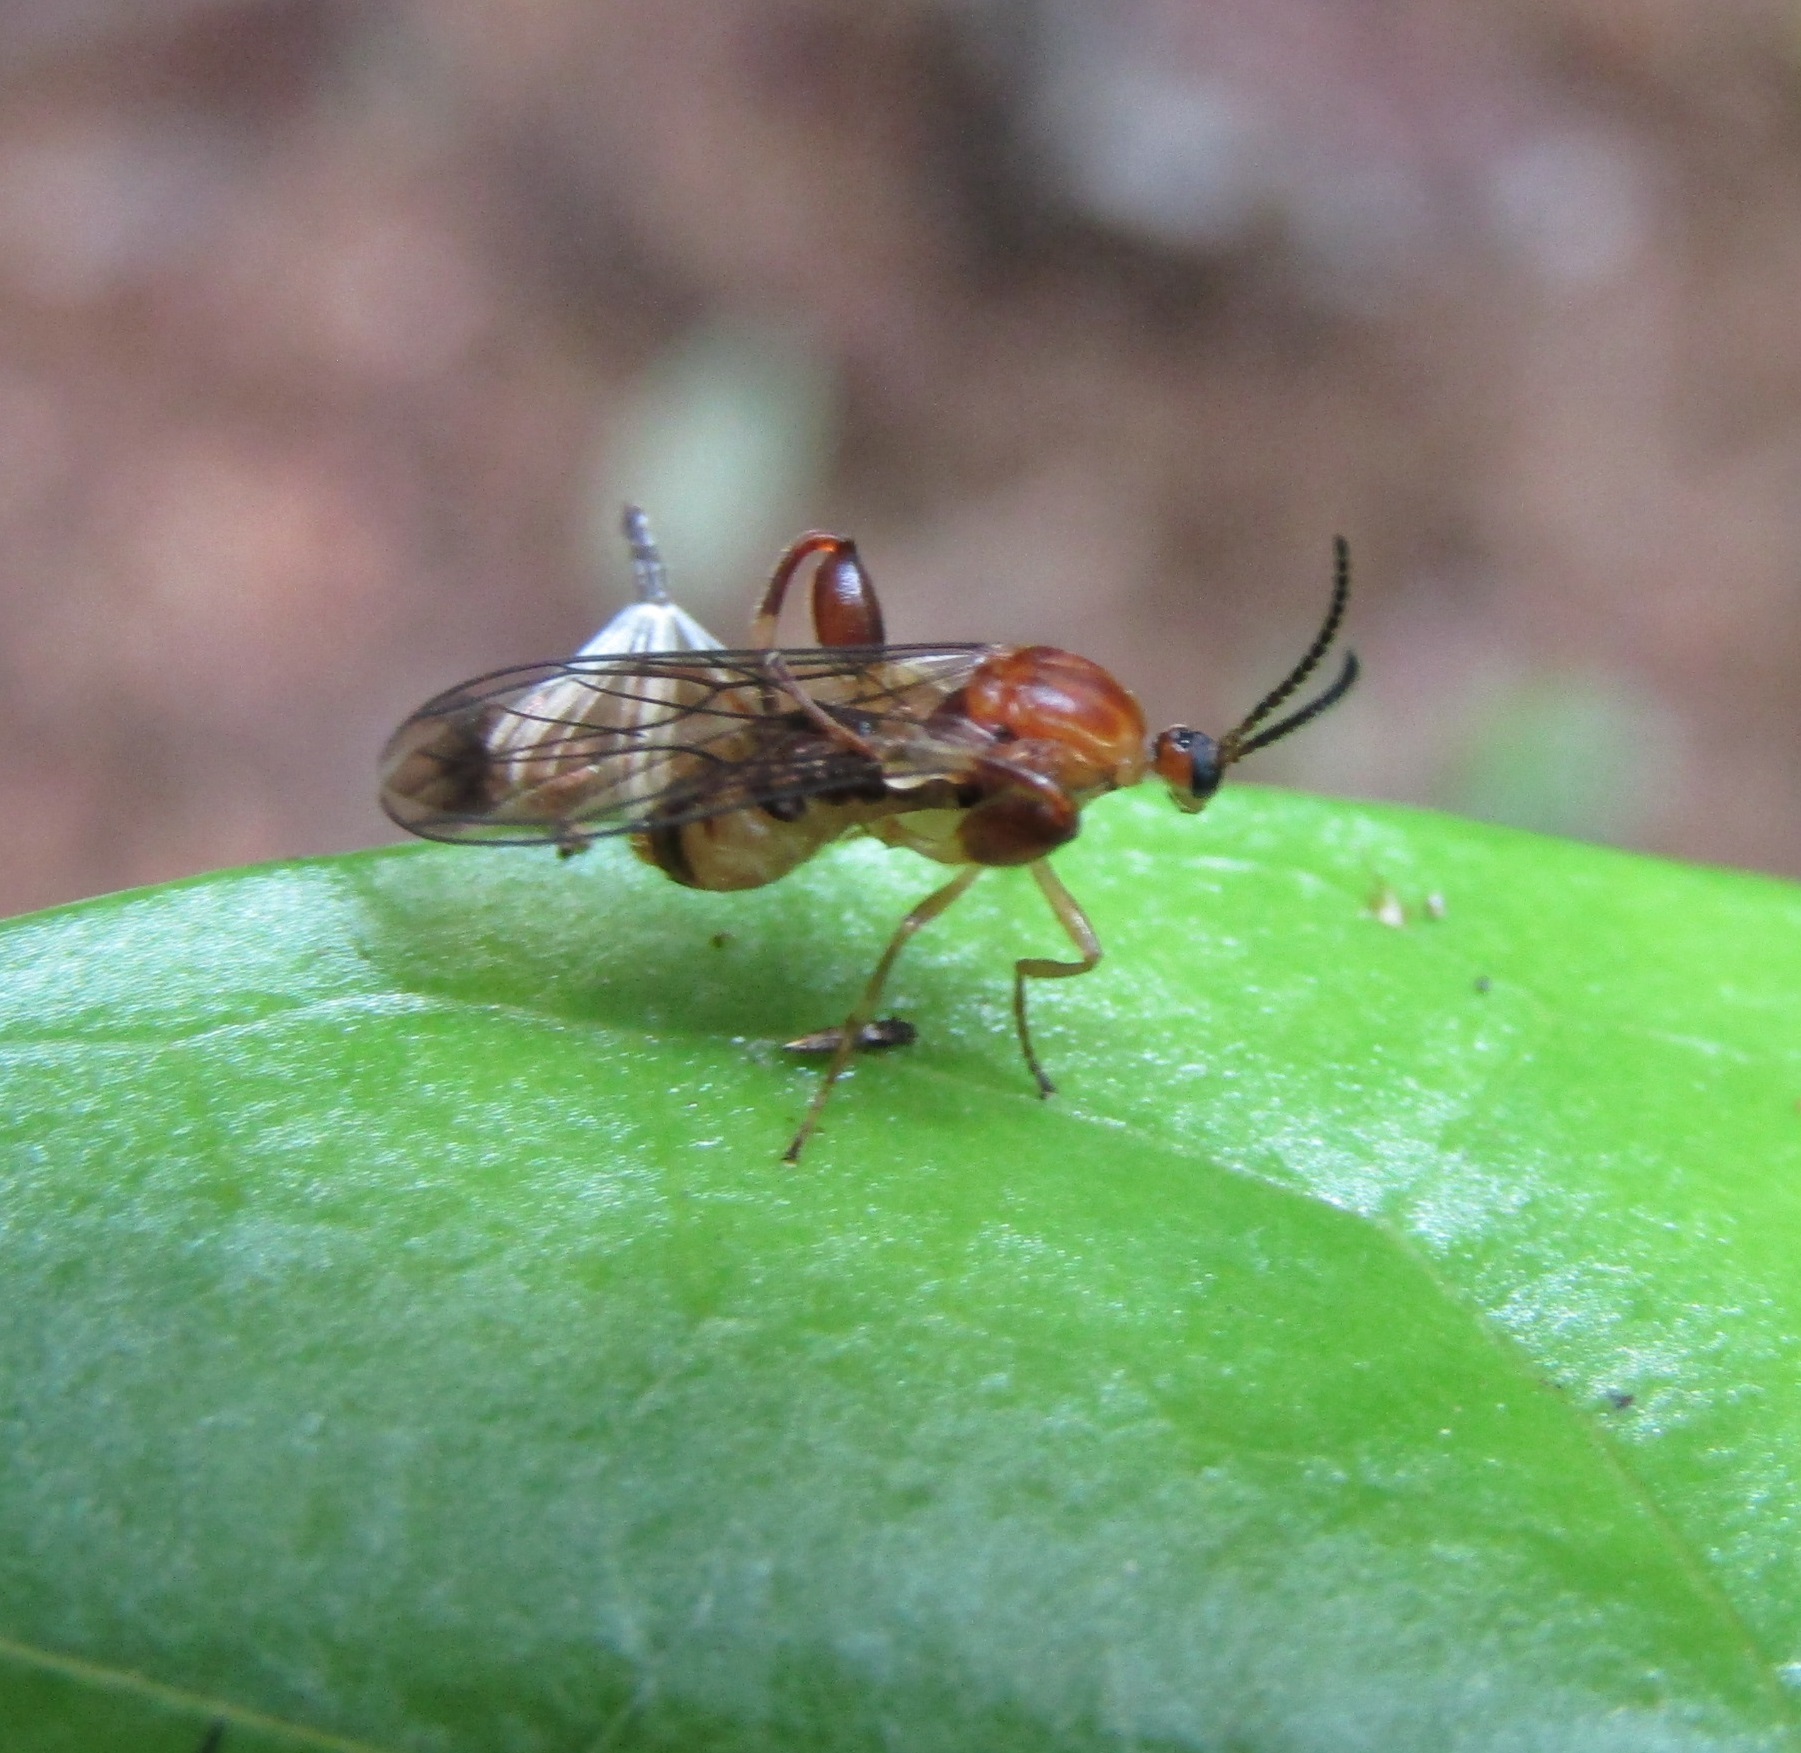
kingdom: Animalia
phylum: Arthropoda
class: Insecta
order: Diptera
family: Canthyloscelididae
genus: Canthyloscelis
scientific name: Canthyloscelis antennata
